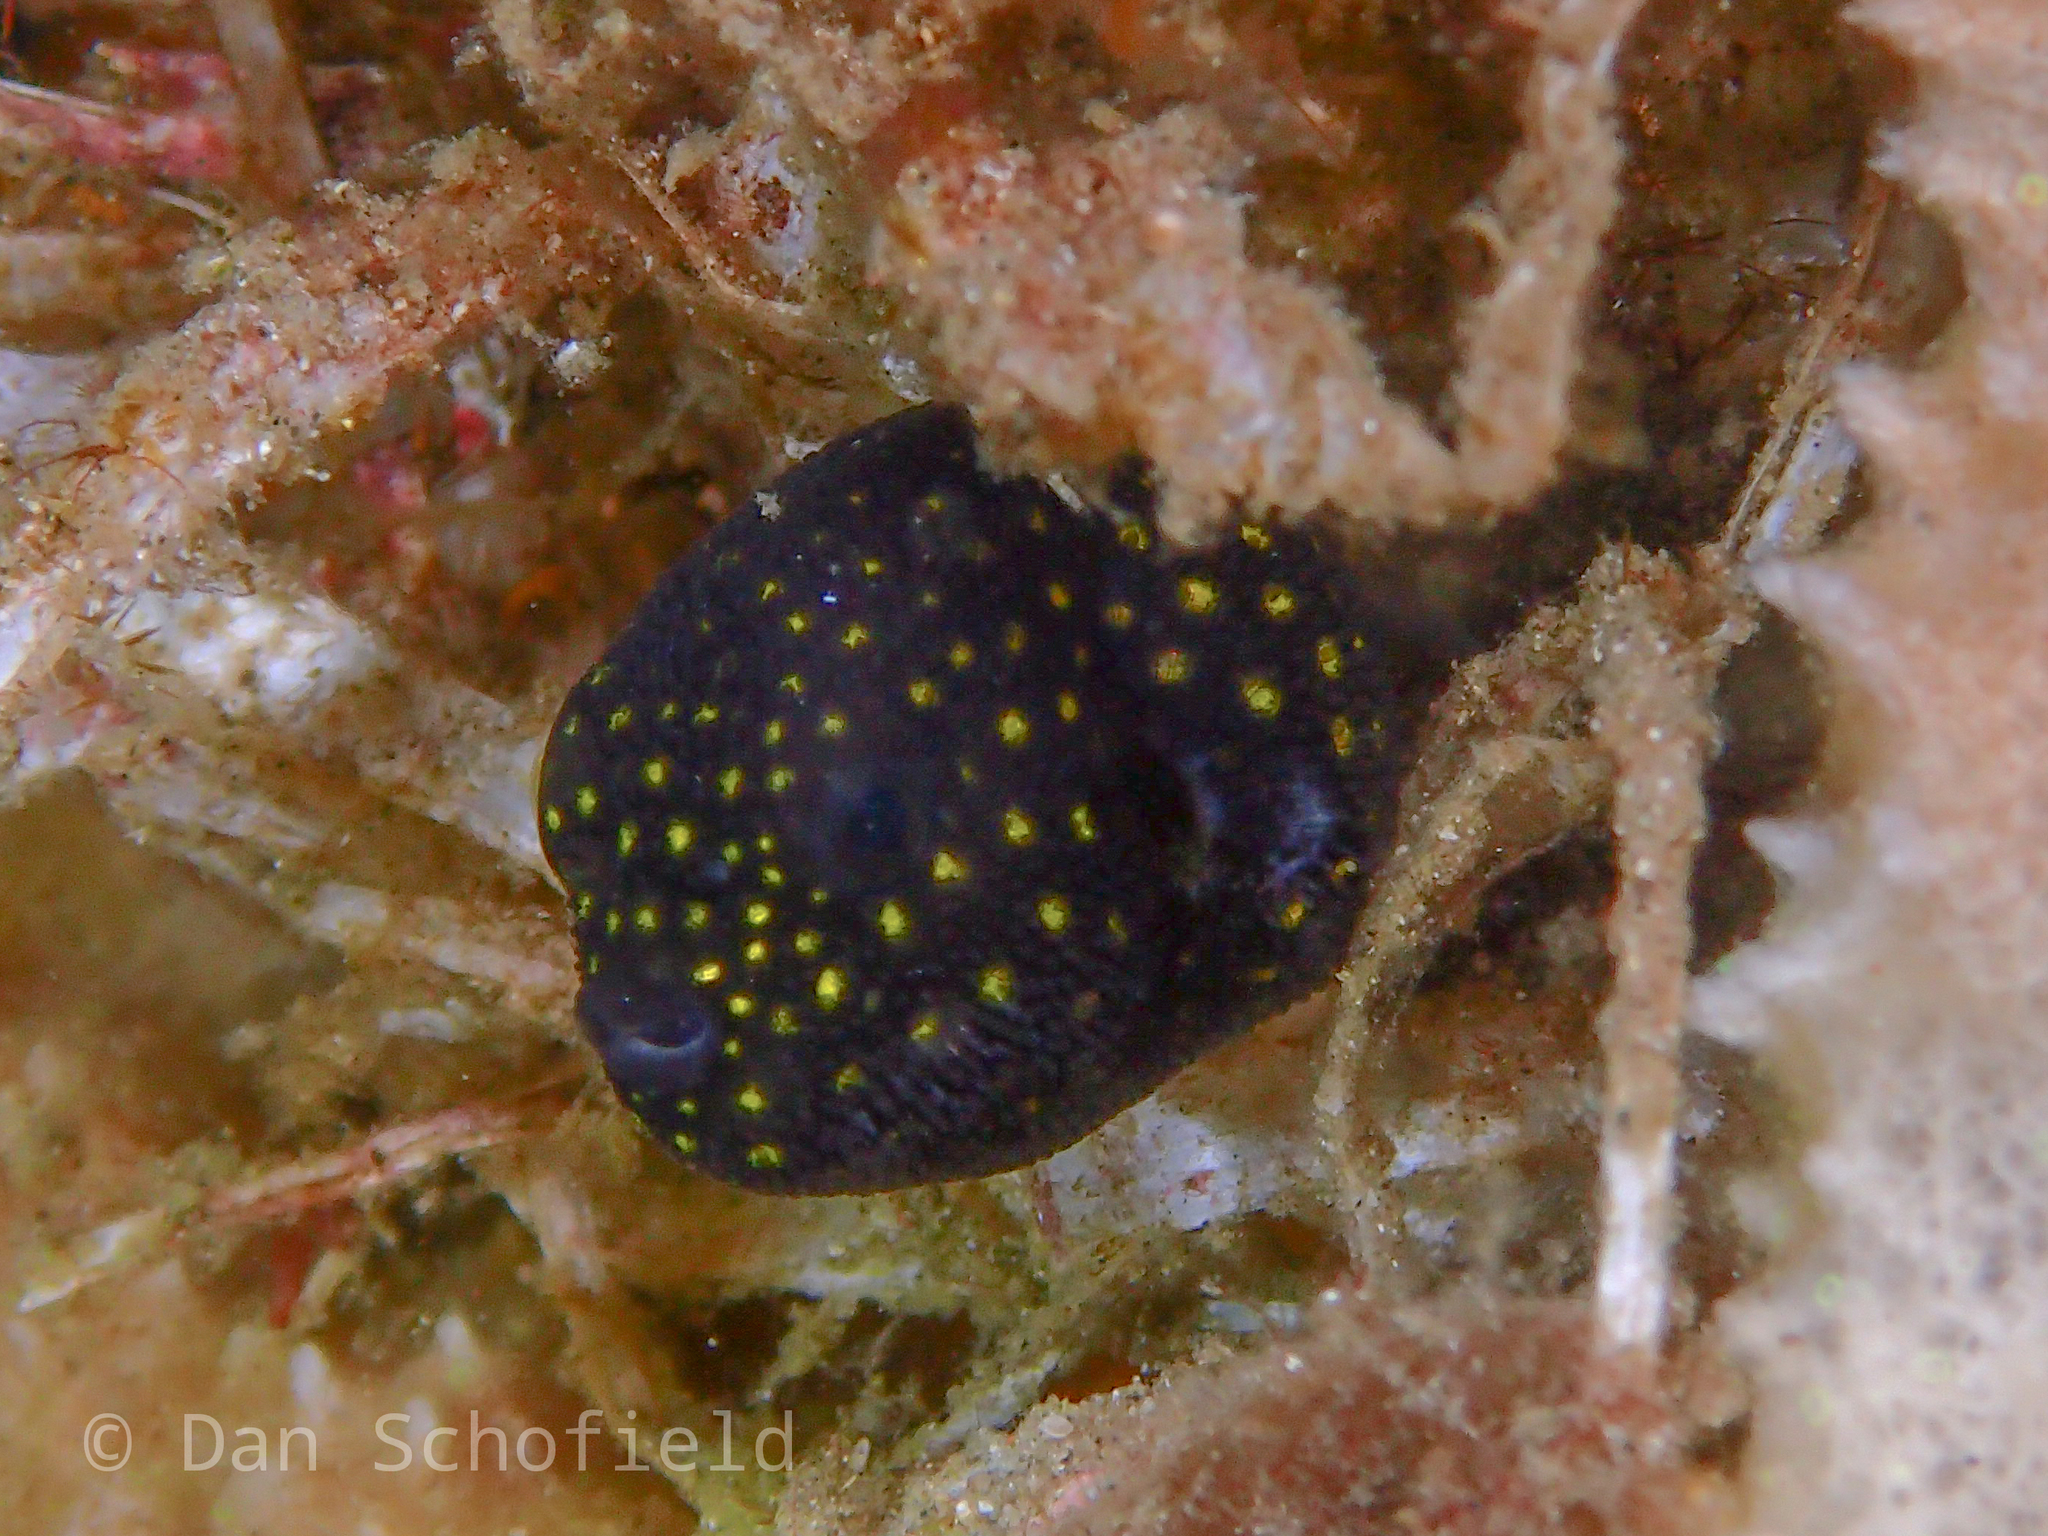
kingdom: Animalia
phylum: Chordata
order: Tetraodontiformes
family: Tetraodontidae
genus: Arothron
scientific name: Arothron meleagris
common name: Guinea-fowl pufferfish
